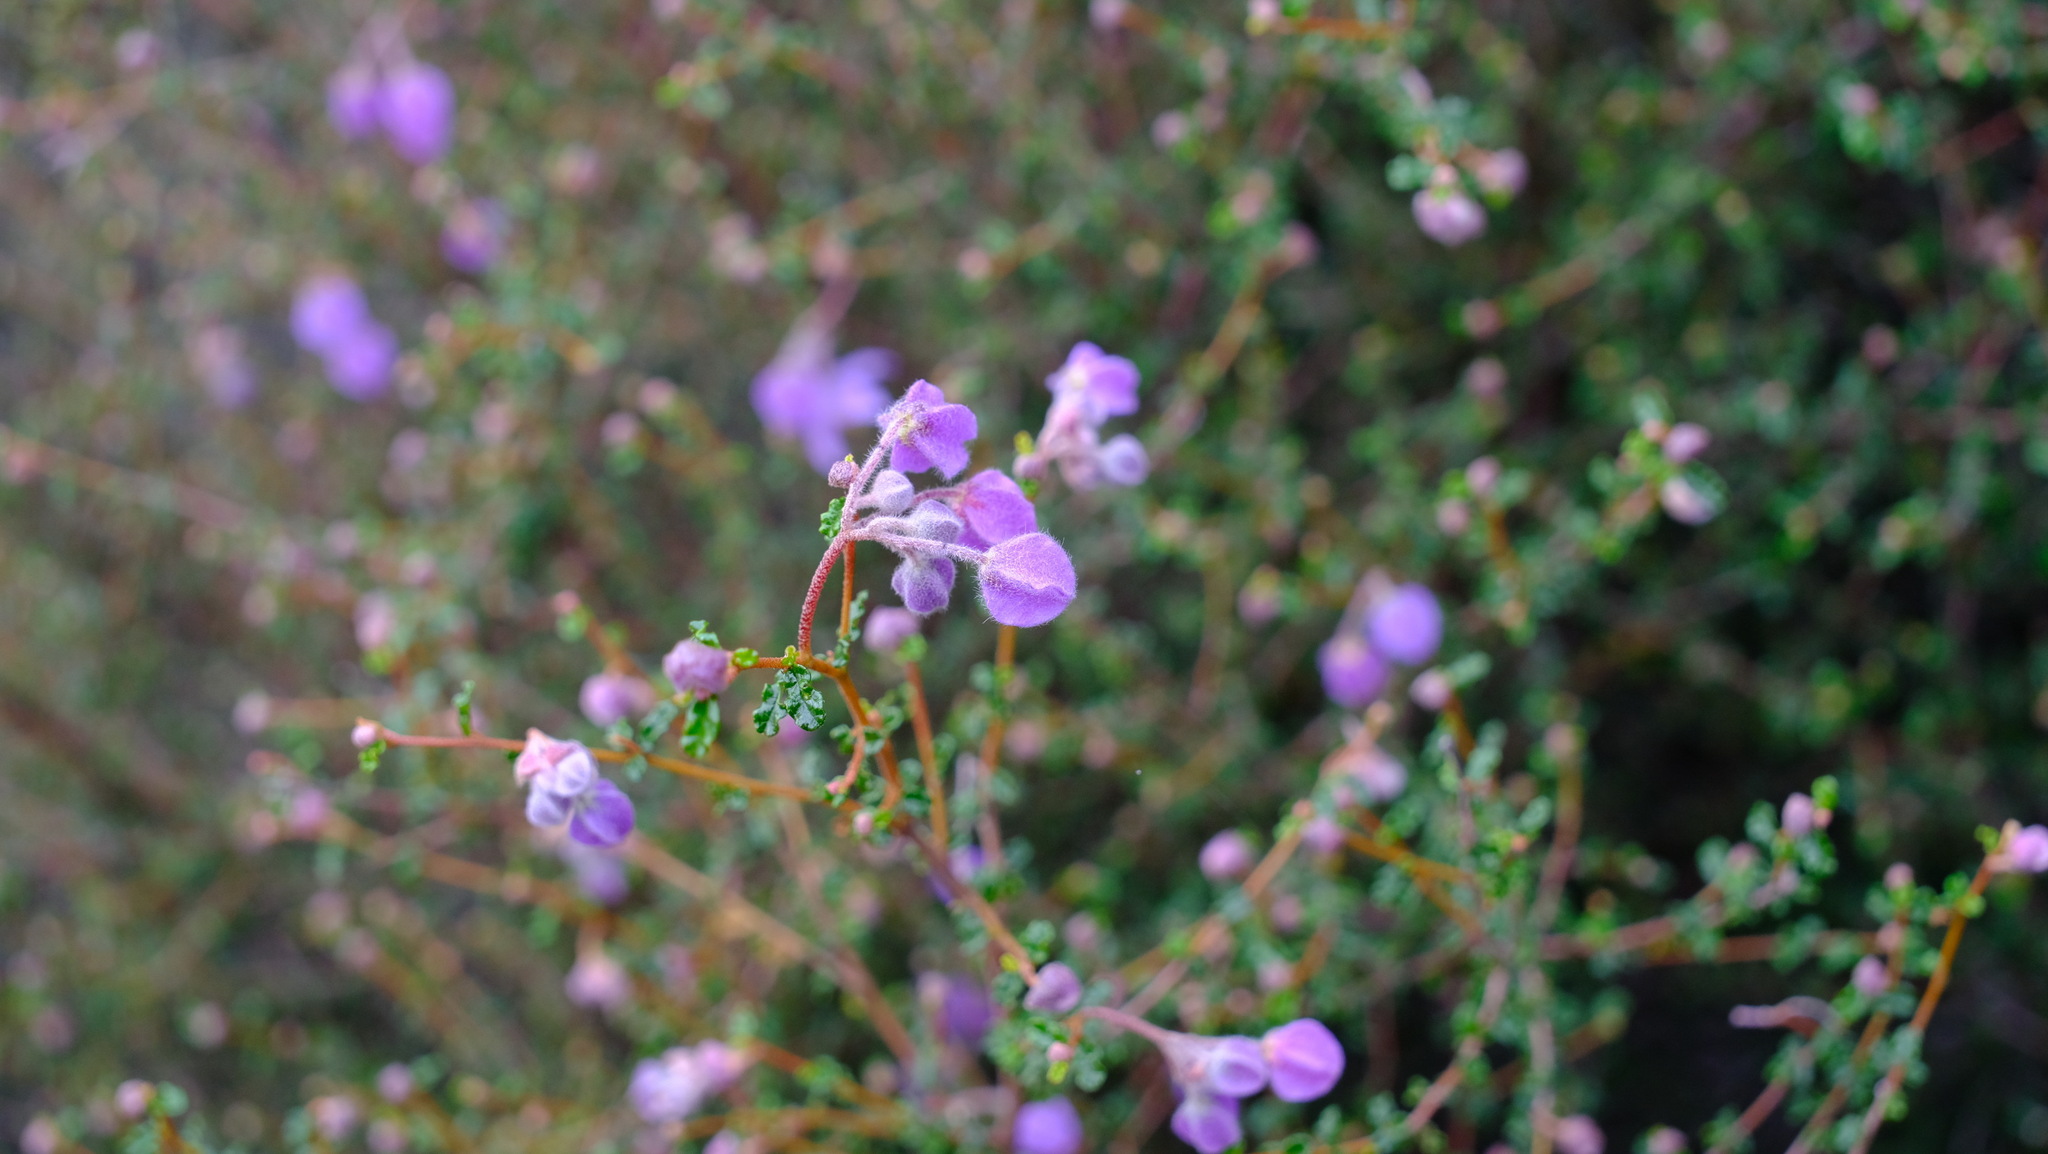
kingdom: Plantae
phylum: Tracheophyta
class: Magnoliopsida
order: Malvales
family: Malvaceae
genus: Seringia
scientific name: Seringia saxatilis
